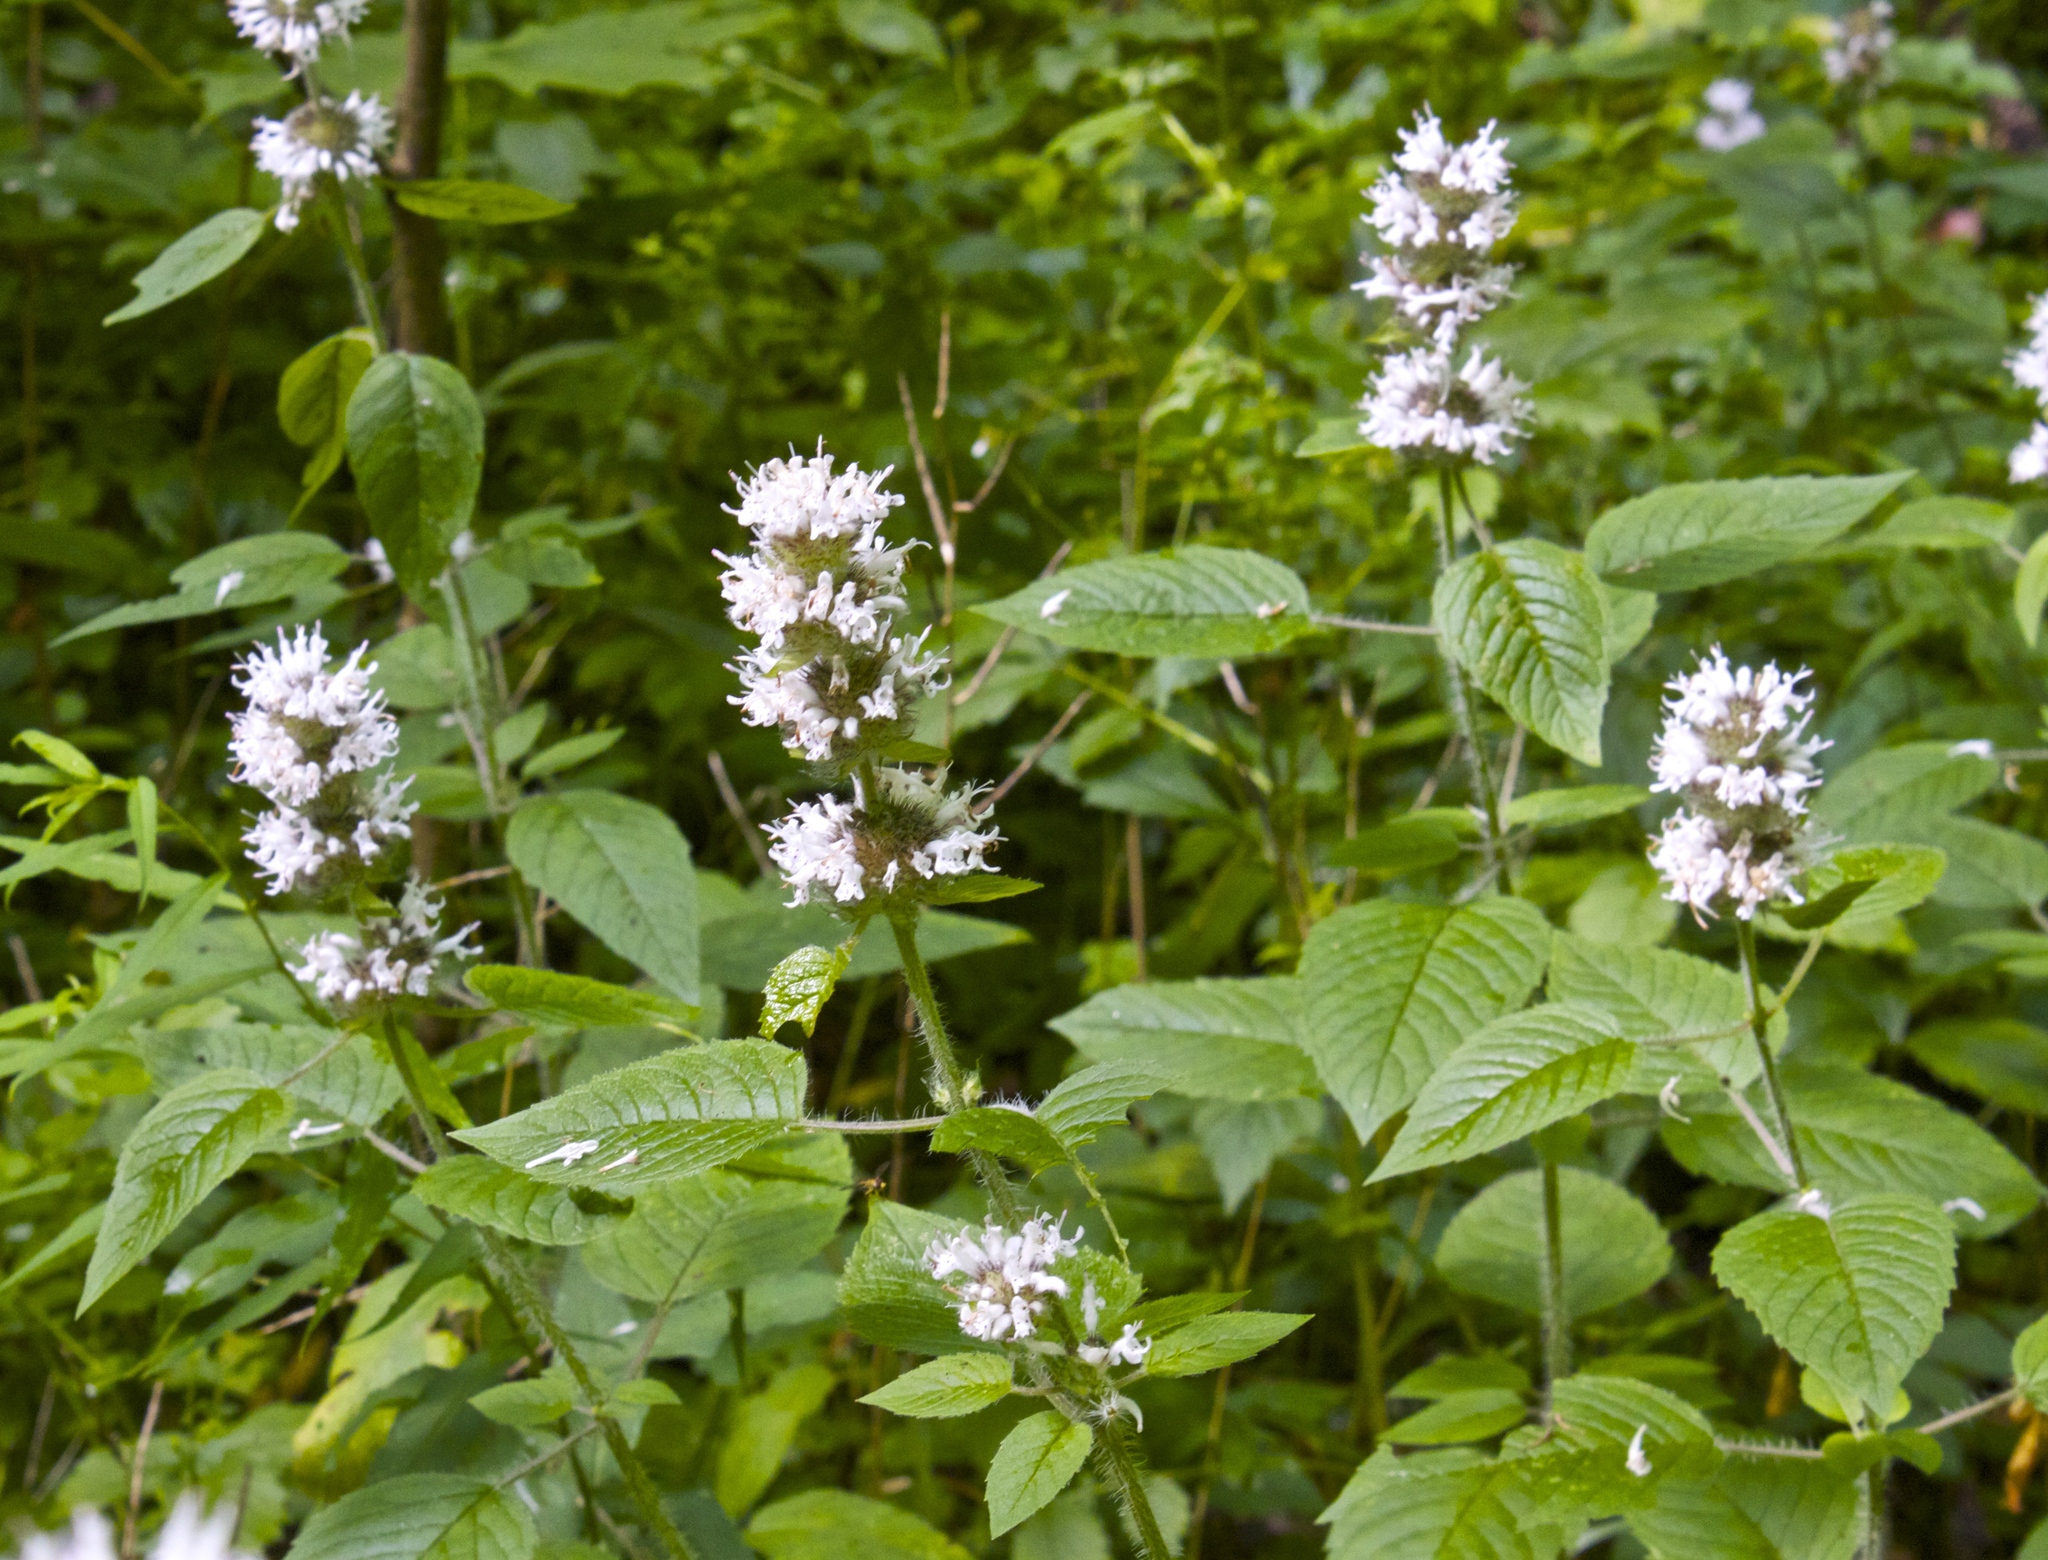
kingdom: Plantae
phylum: Tracheophyta
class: Magnoliopsida
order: Lamiales
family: Lamiaceae
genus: Blephilia
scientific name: Blephilia hirsuta
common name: Hairy blephilia
